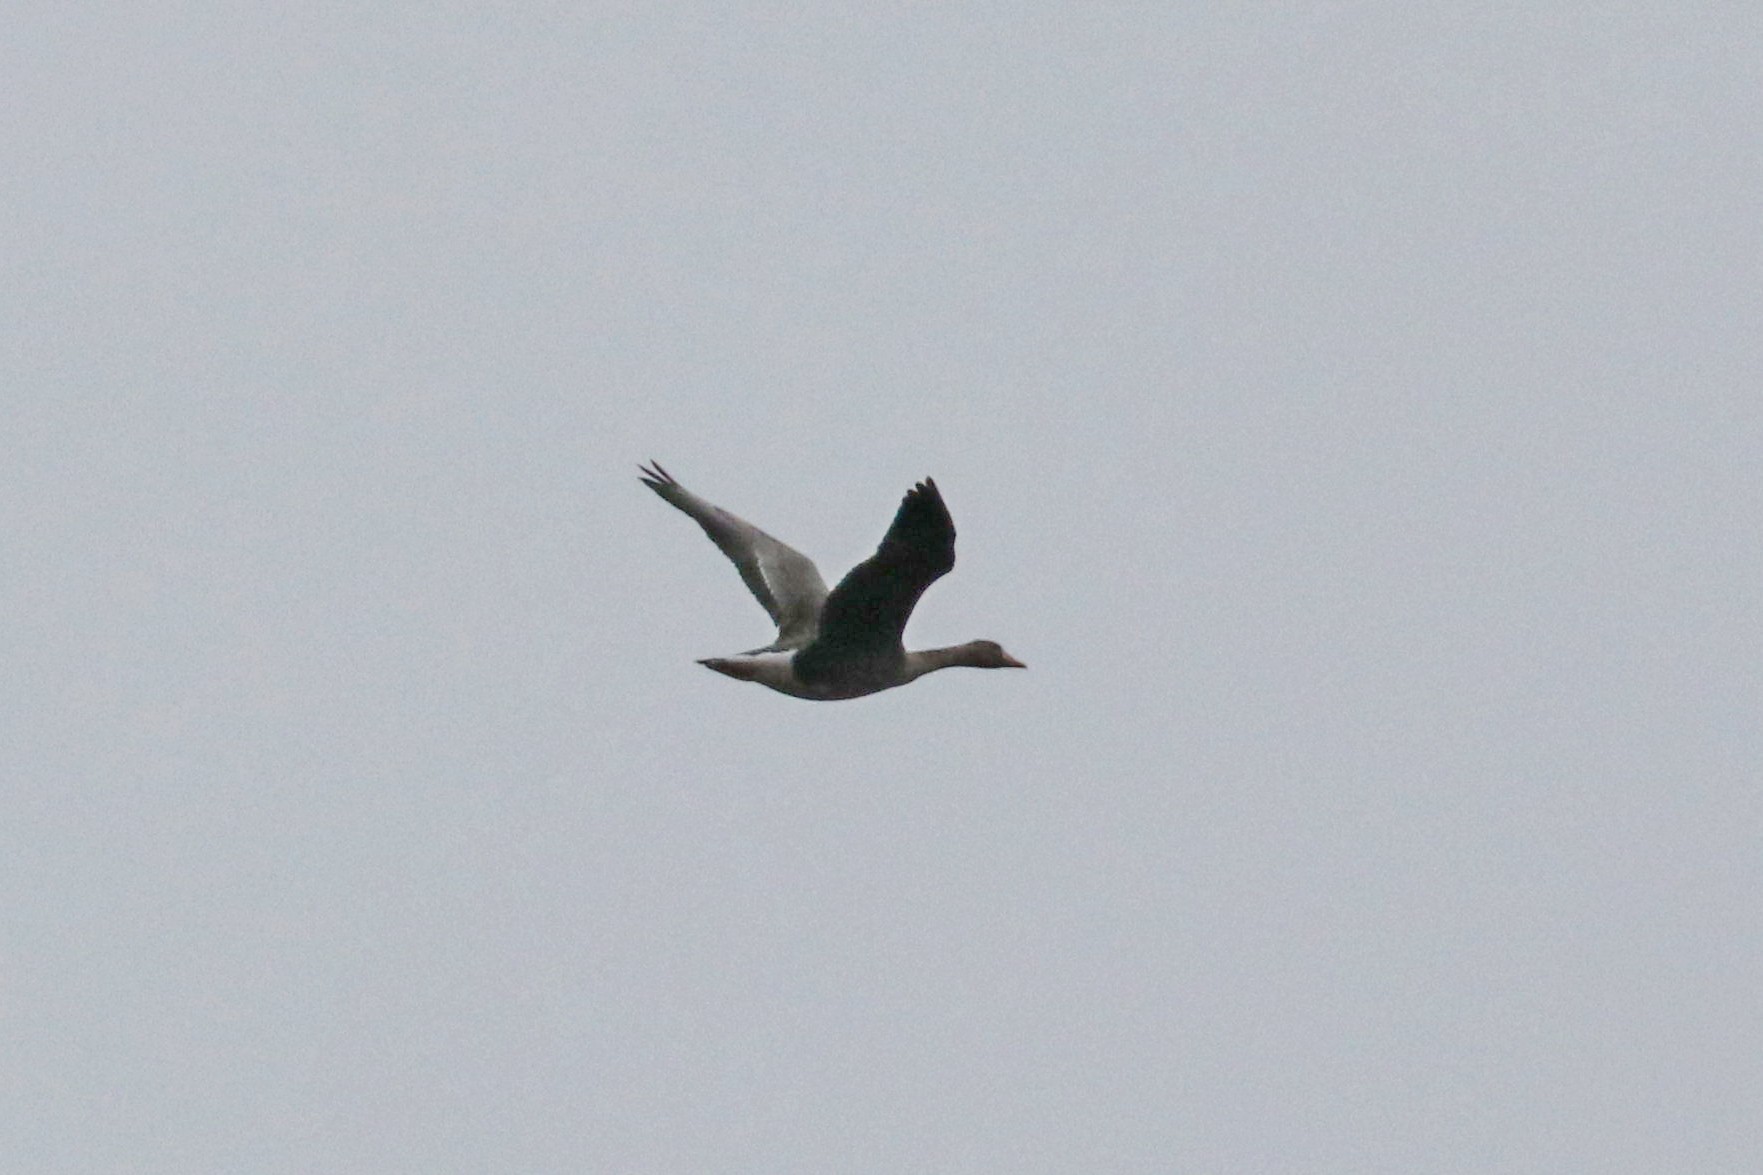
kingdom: Animalia
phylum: Chordata
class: Aves
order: Anseriformes
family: Anatidae
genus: Anser
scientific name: Anser albifrons
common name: Greater white-fronted goose
